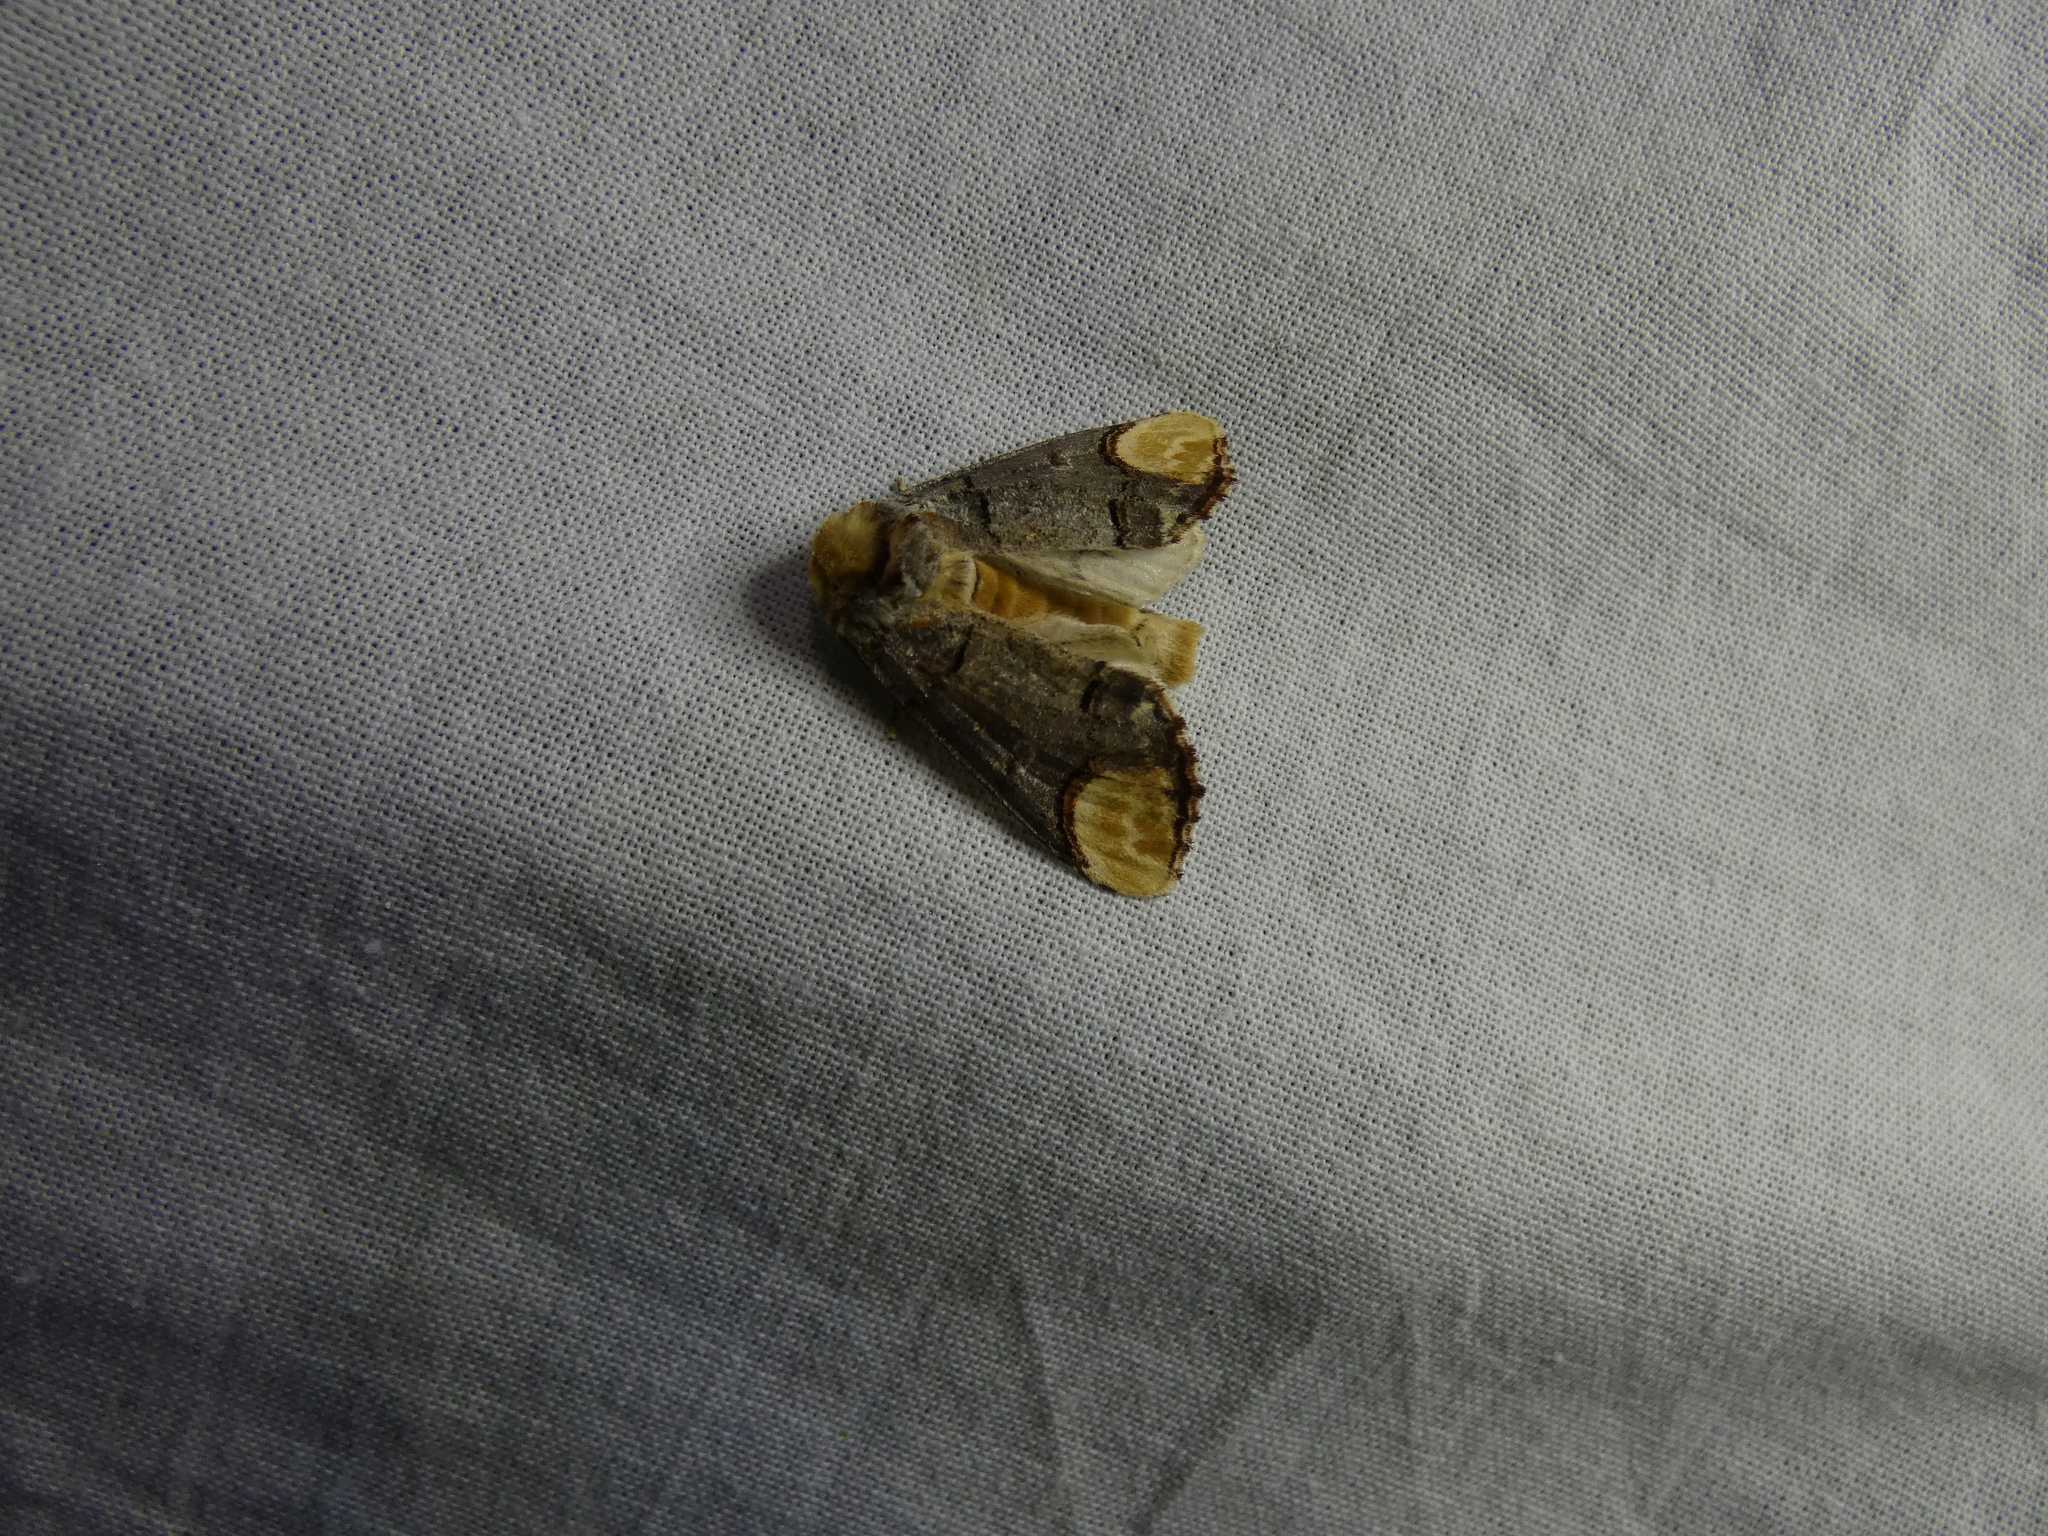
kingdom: Animalia
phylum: Arthropoda
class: Insecta
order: Lepidoptera
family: Notodontidae
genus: Phalera
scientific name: Phalera bucephala
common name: Buff-tip
